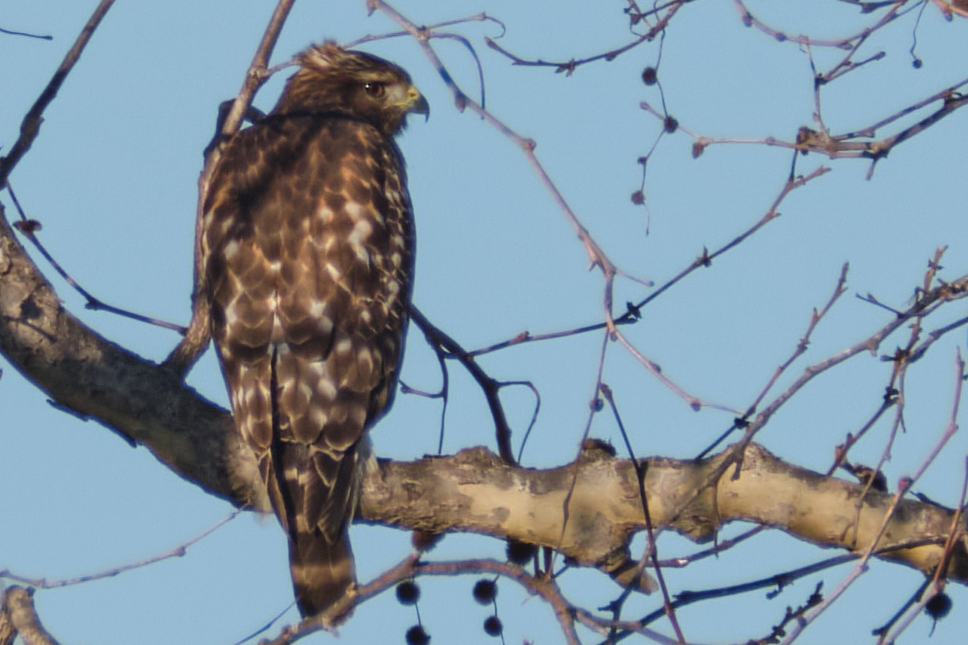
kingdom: Animalia
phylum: Chordata
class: Aves
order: Accipitriformes
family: Accipitridae
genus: Buteo
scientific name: Buteo lineatus
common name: Red-shouldered hawk
